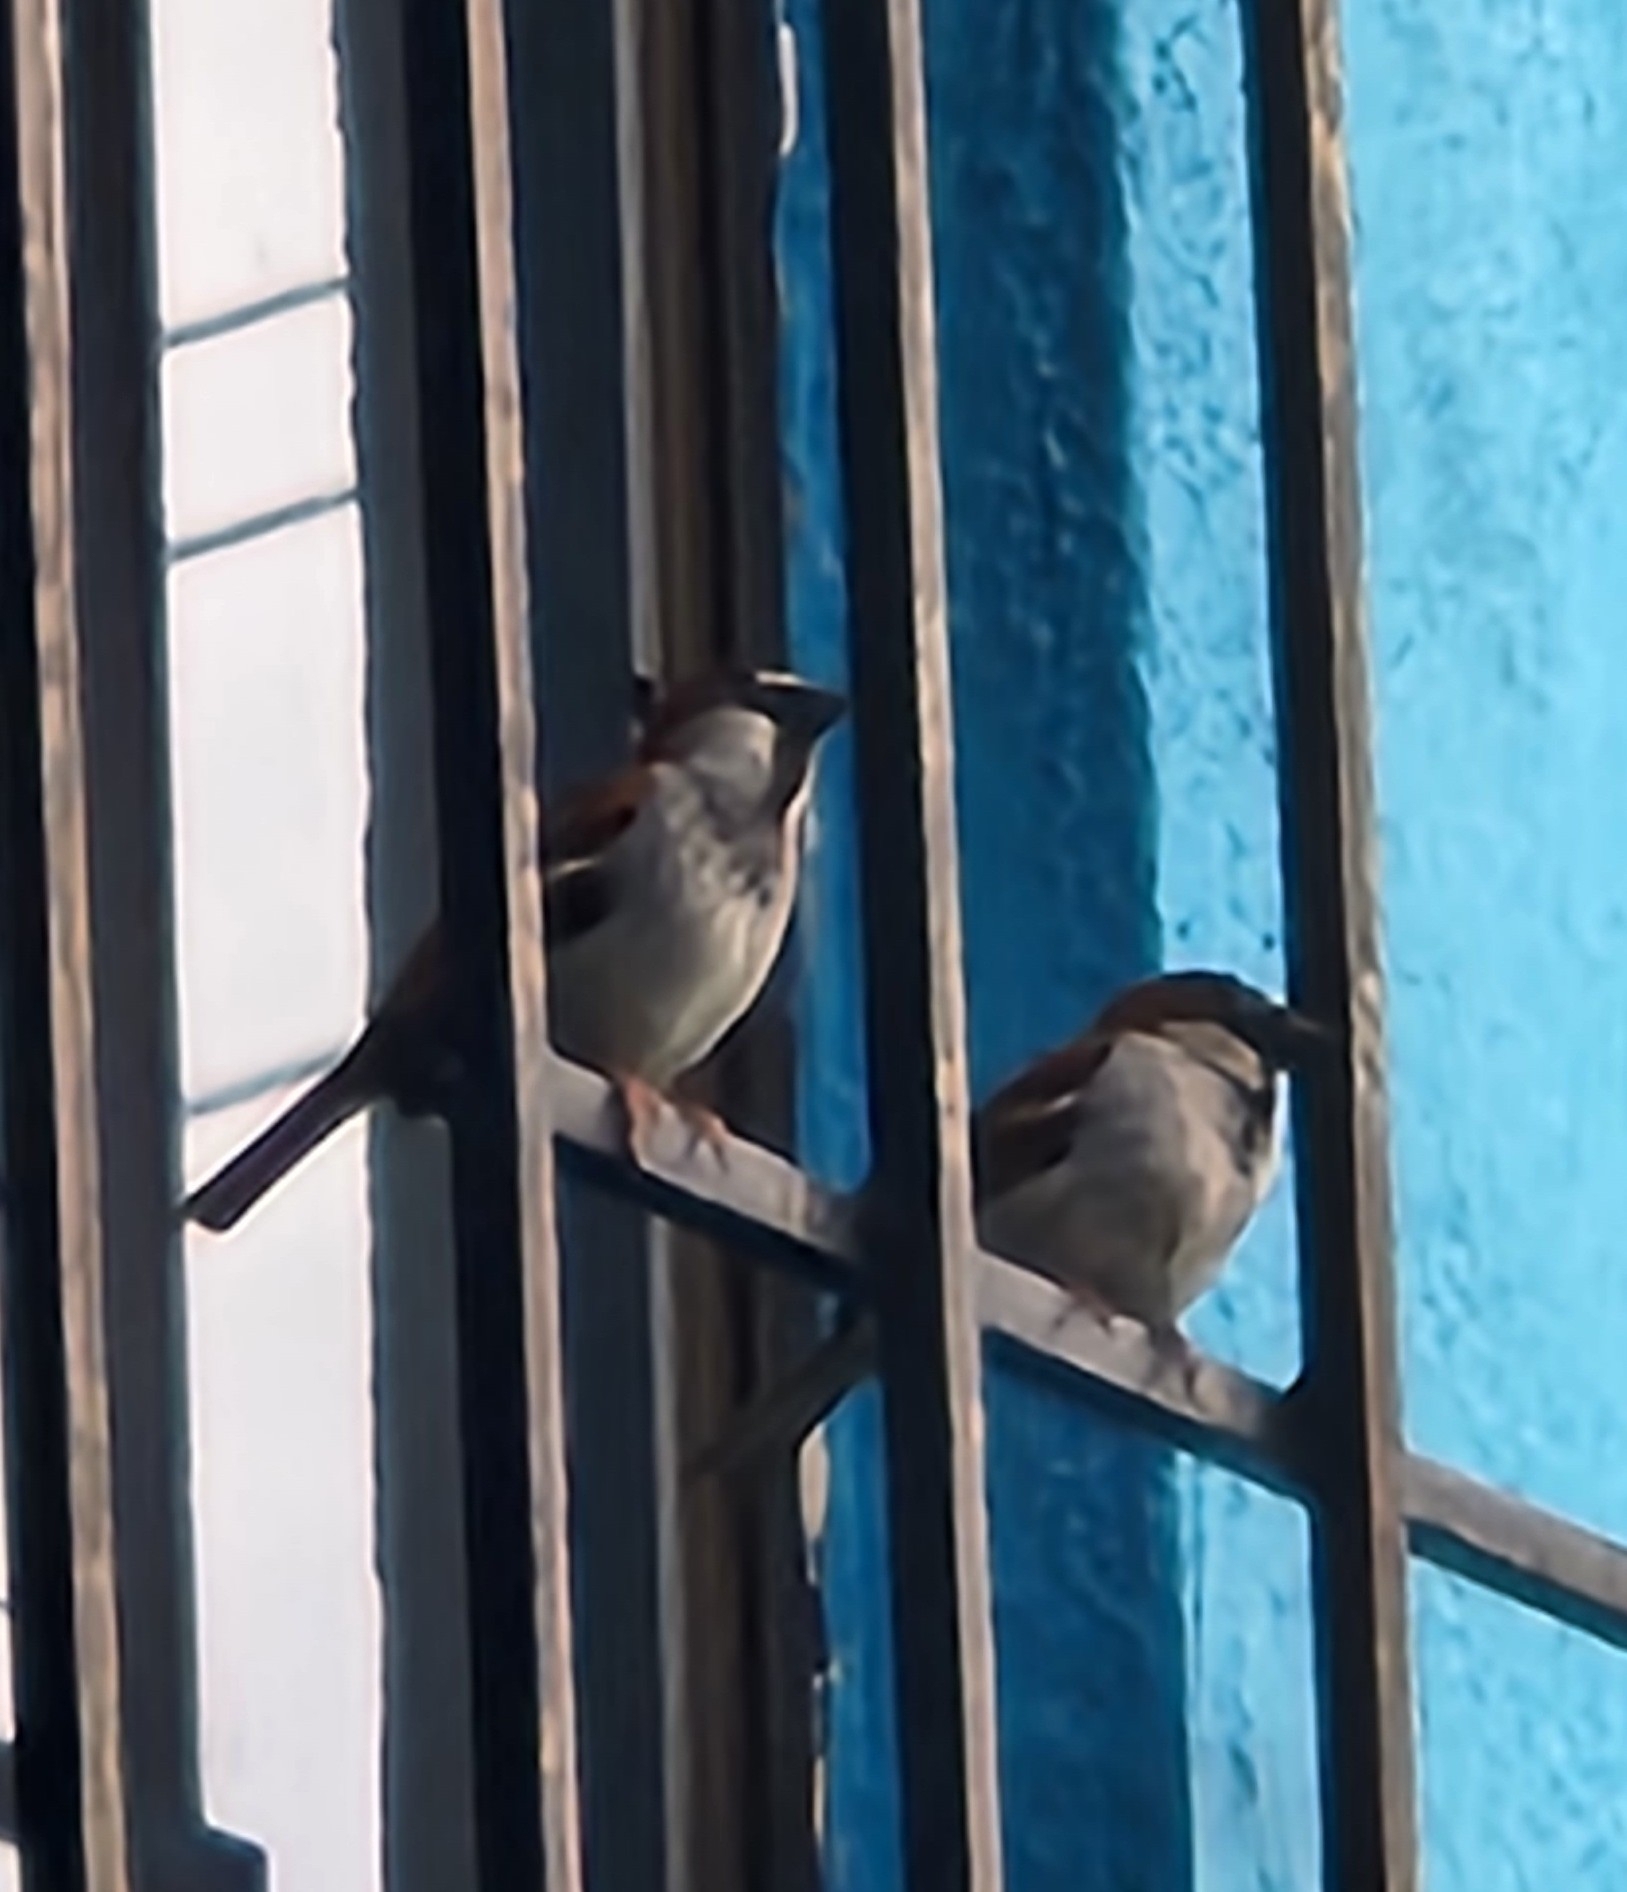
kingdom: Animalia
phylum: Chordata
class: Aves
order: Passeriformes
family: Passeridae
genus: Passer
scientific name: Passer domesticus
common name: House sparrow
